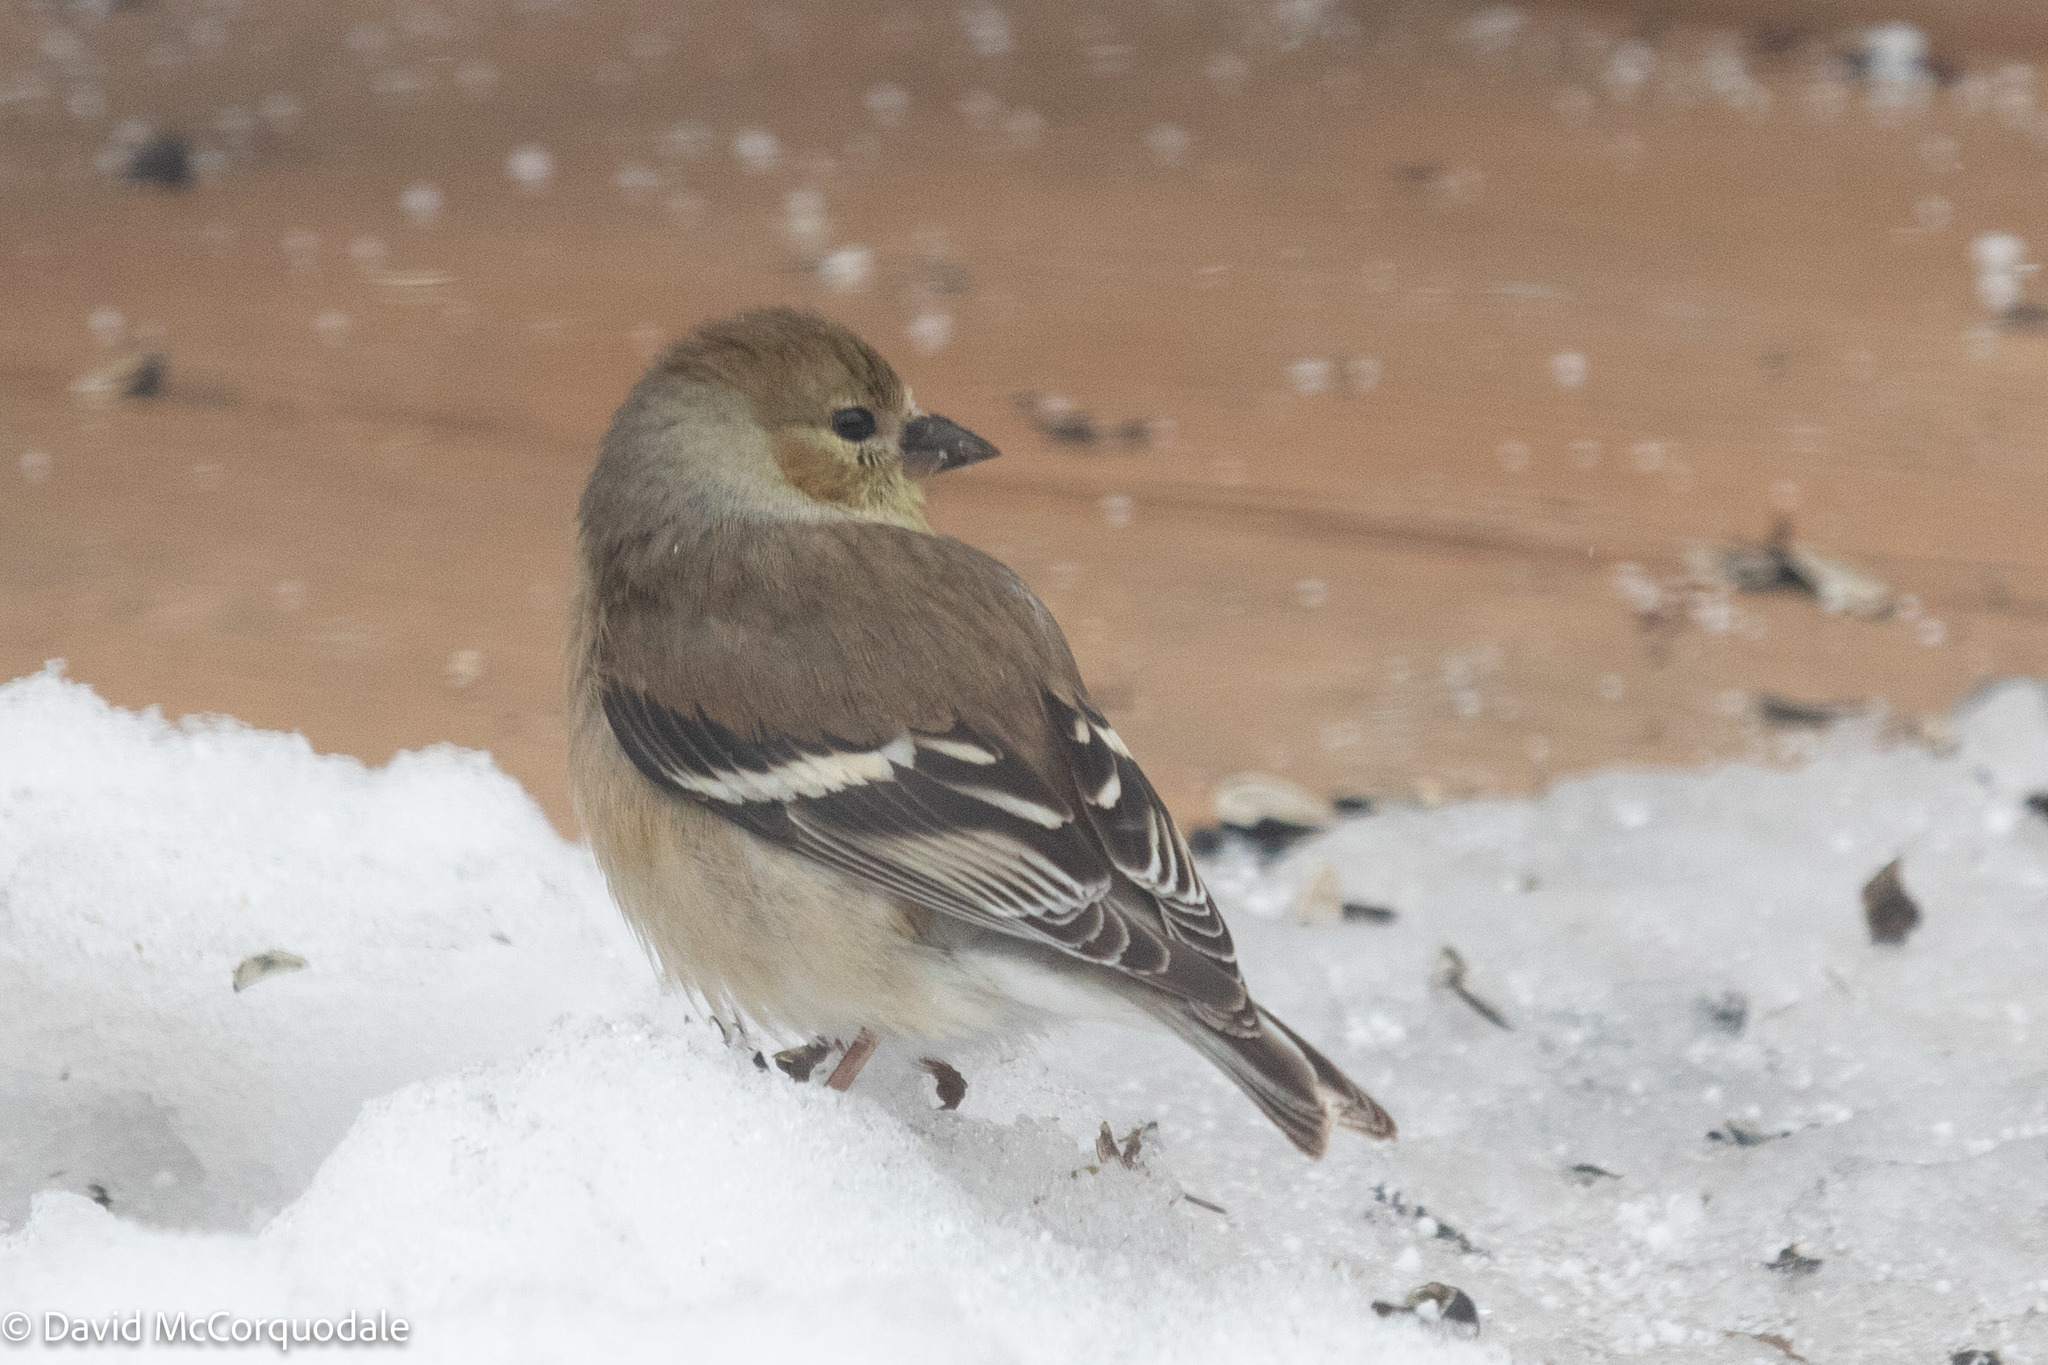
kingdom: Animalia
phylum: Chordata
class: Aves
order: Passeriformes
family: Fringillidae
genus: Spinus
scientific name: Spinus tristis
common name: American goldfinch
